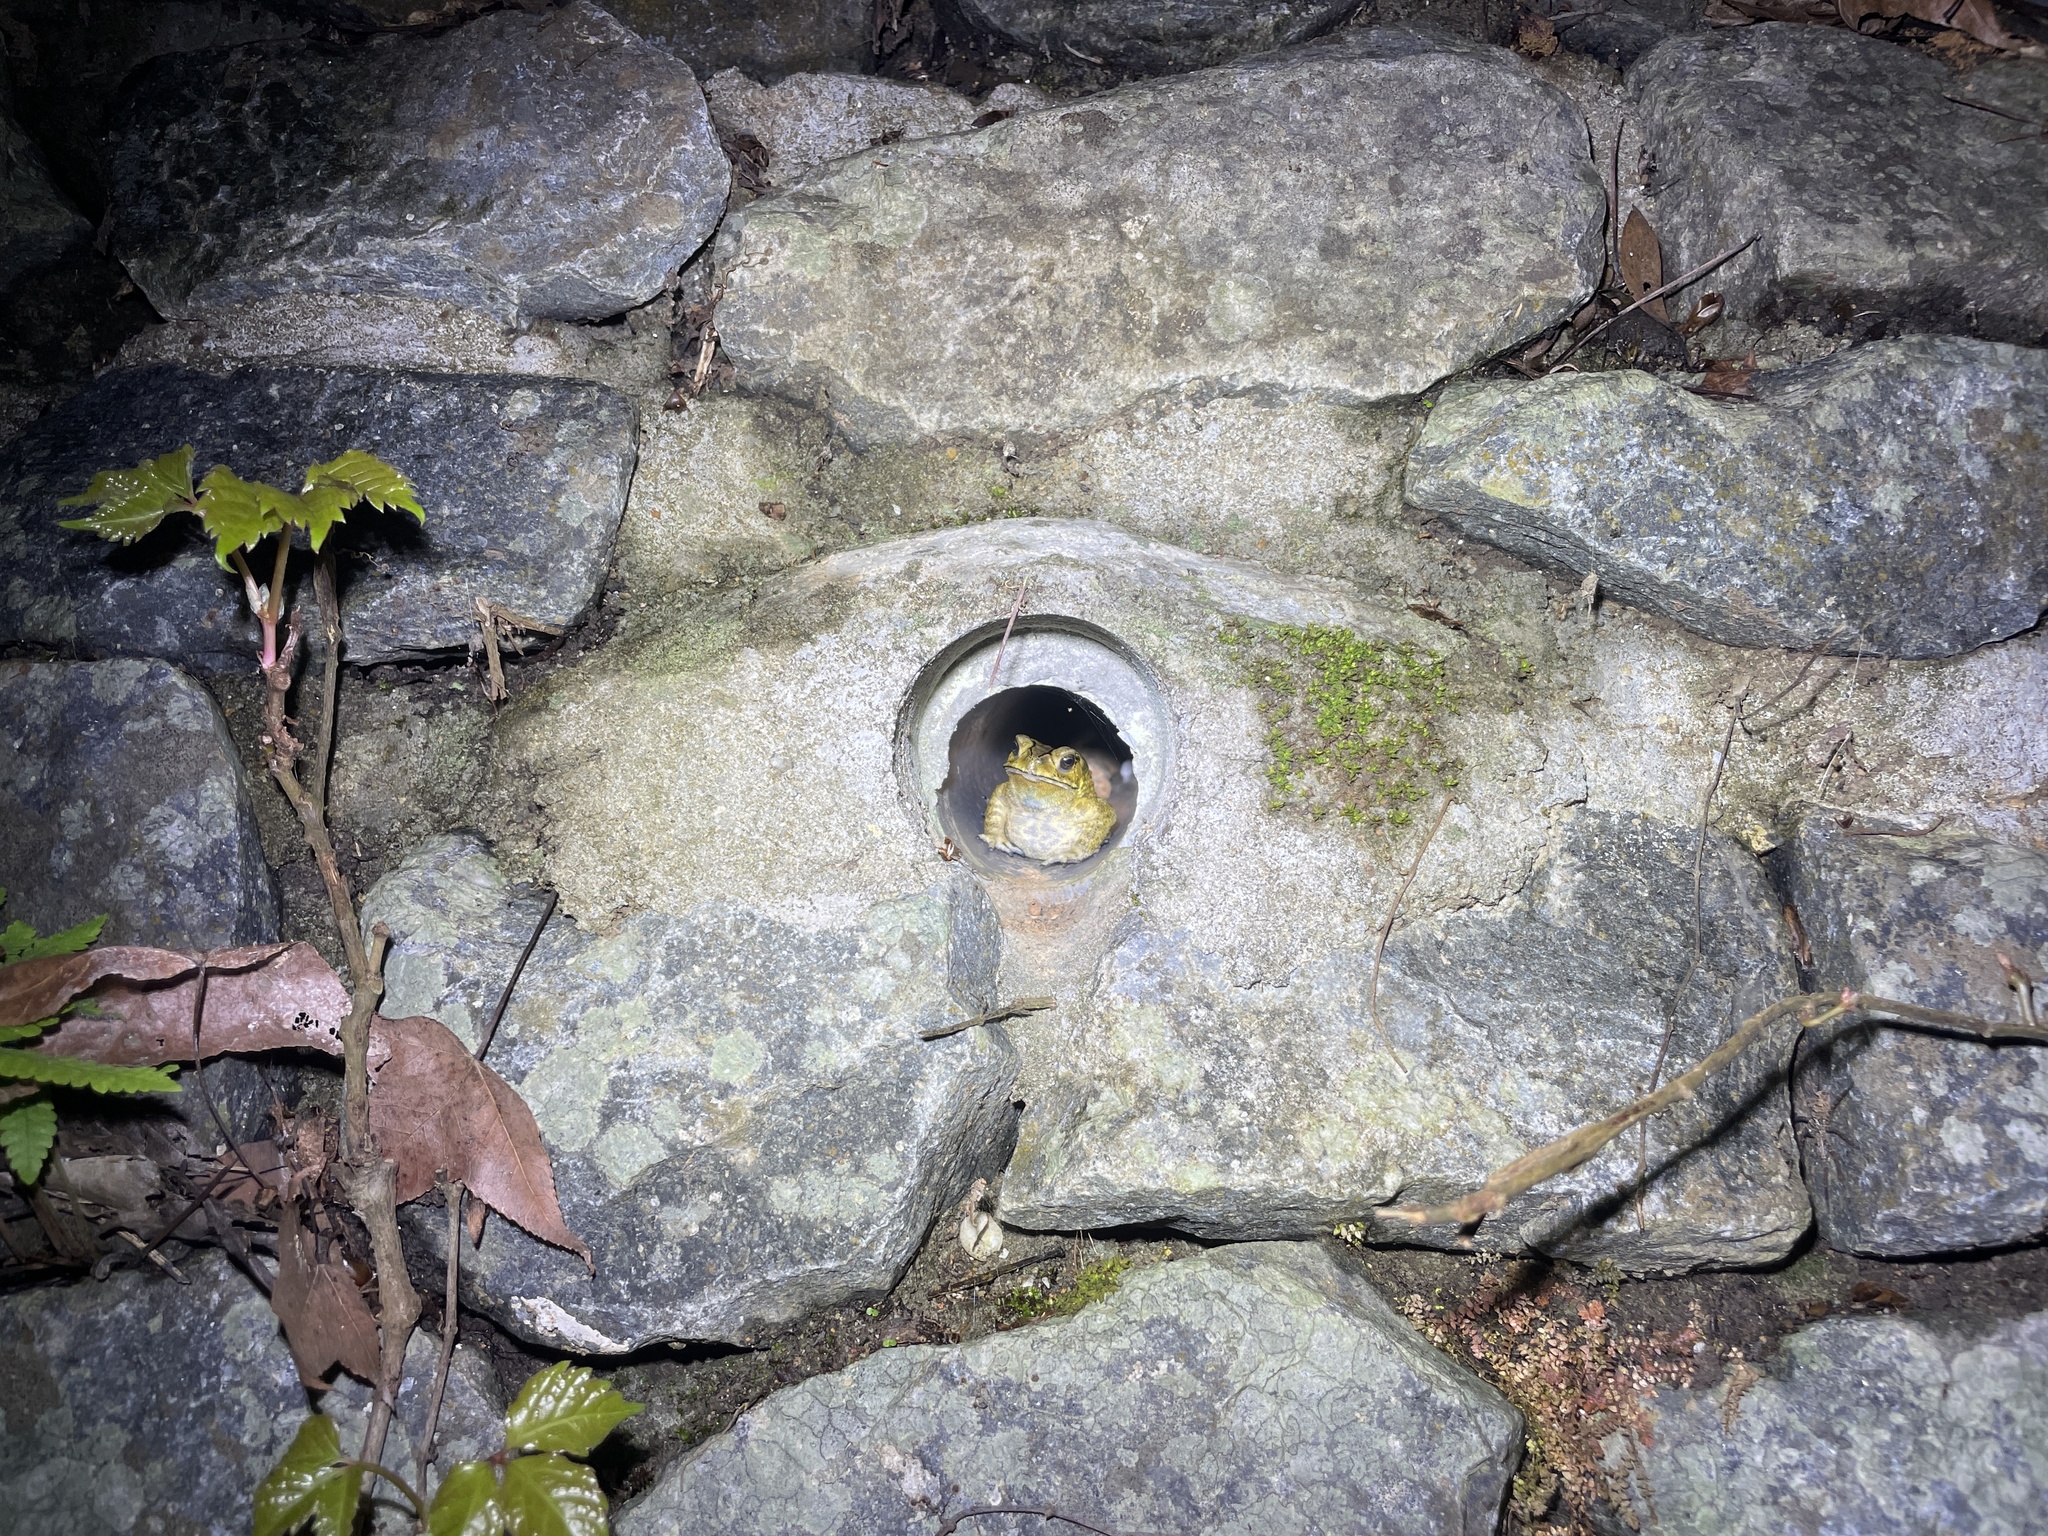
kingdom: Animalia
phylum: Chordata
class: Amphibia
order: Anura
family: Bufonidae
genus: Duttaphrynus
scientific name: Duttaphrynus melanostictus
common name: Common sunda toad
